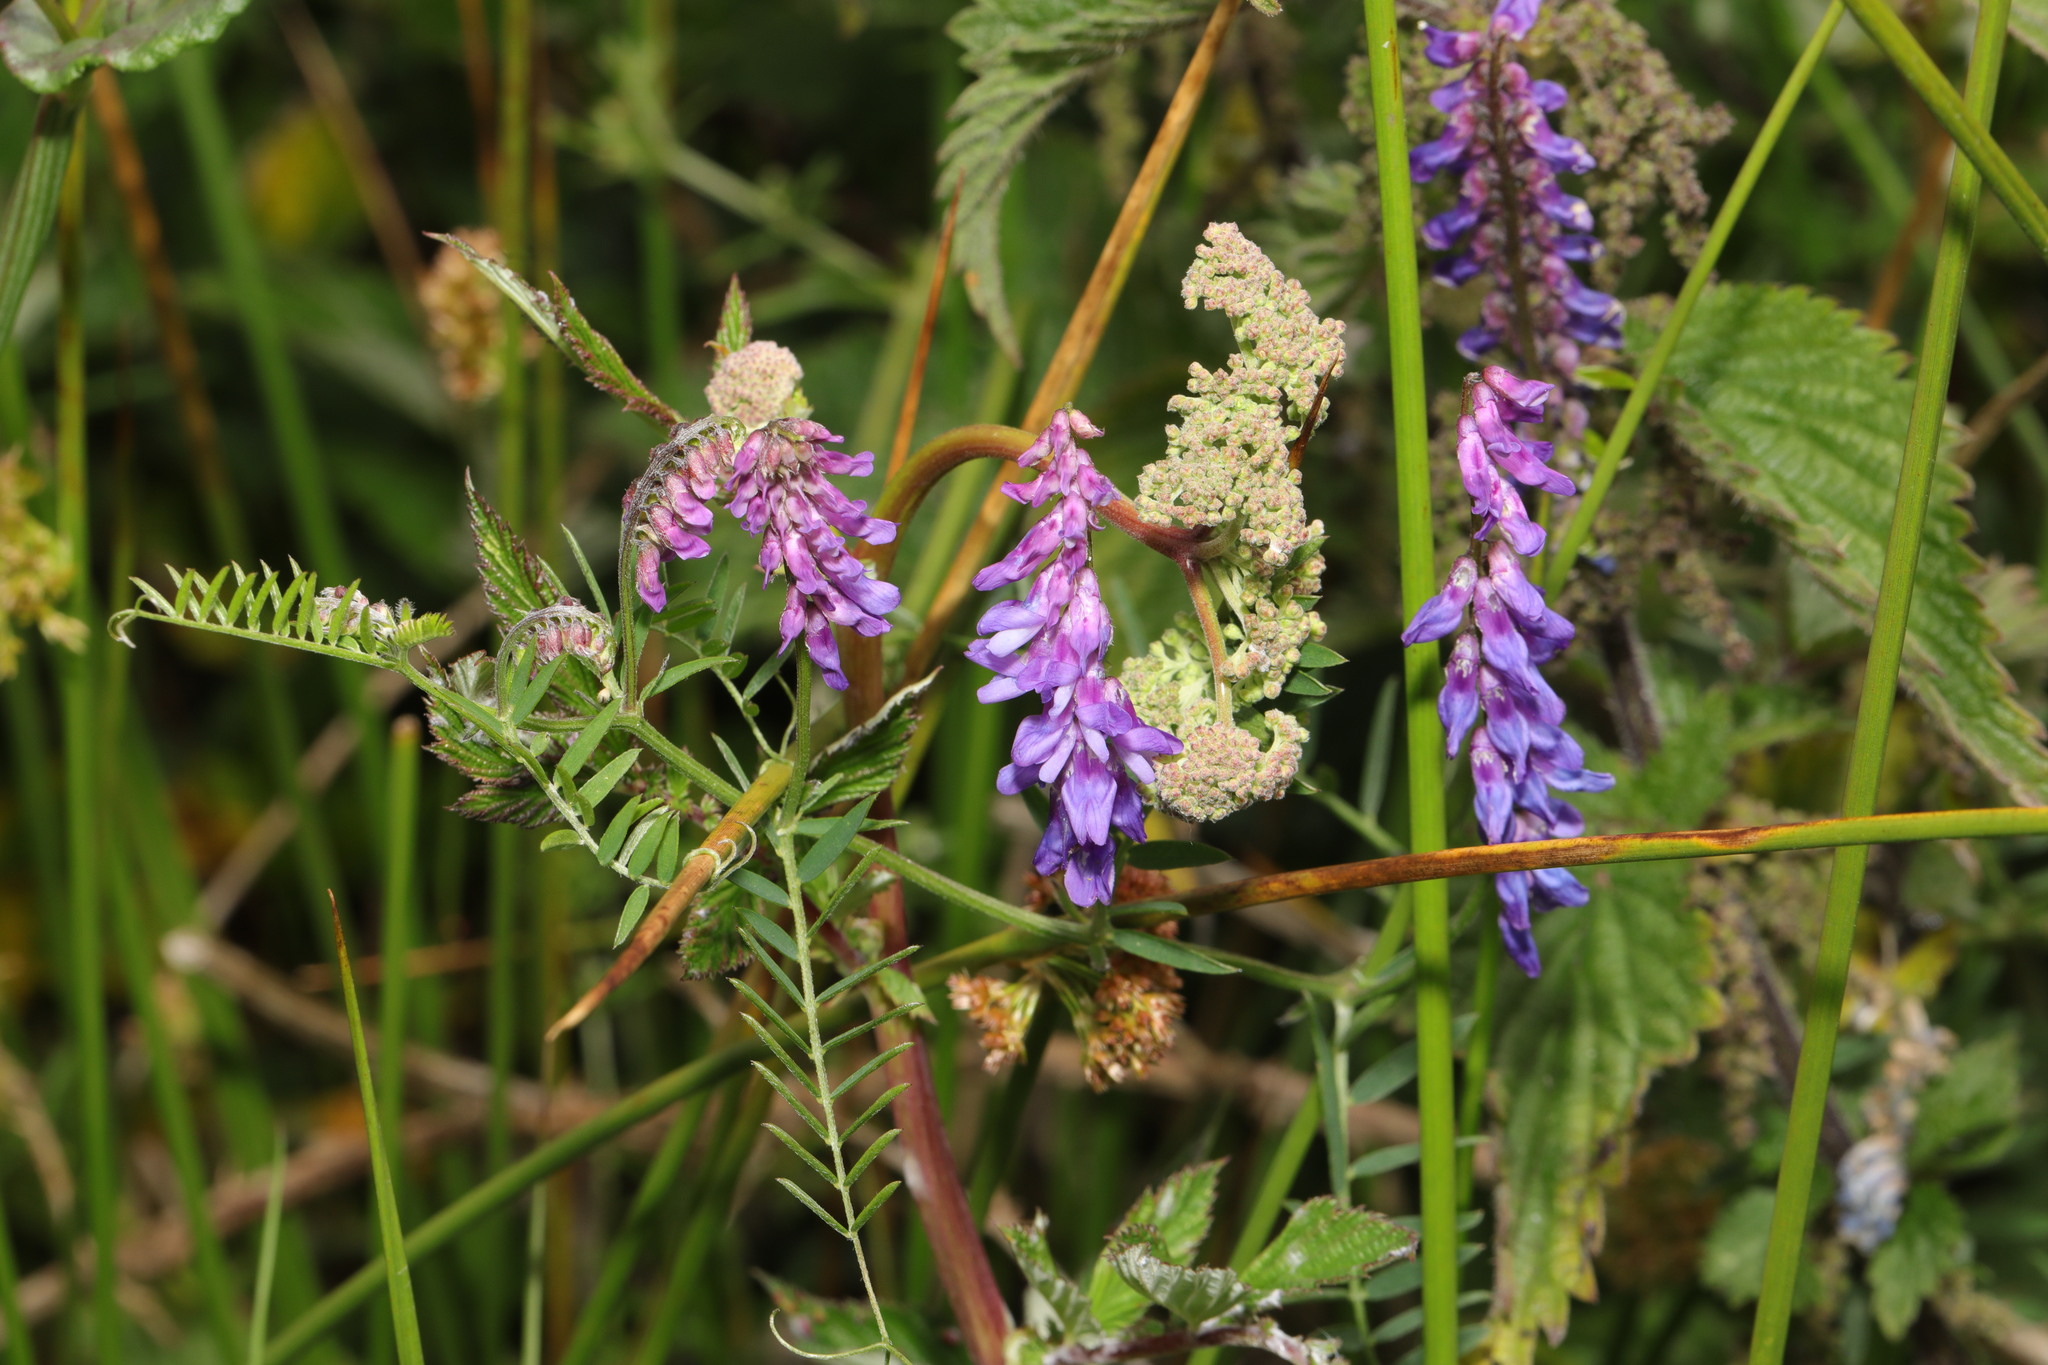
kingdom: Plantae
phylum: Tracheophyta
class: Magnoliopsida
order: Fabales
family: Fabaceae
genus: Vicia
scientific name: Vicia cracca
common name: Bird vetch
